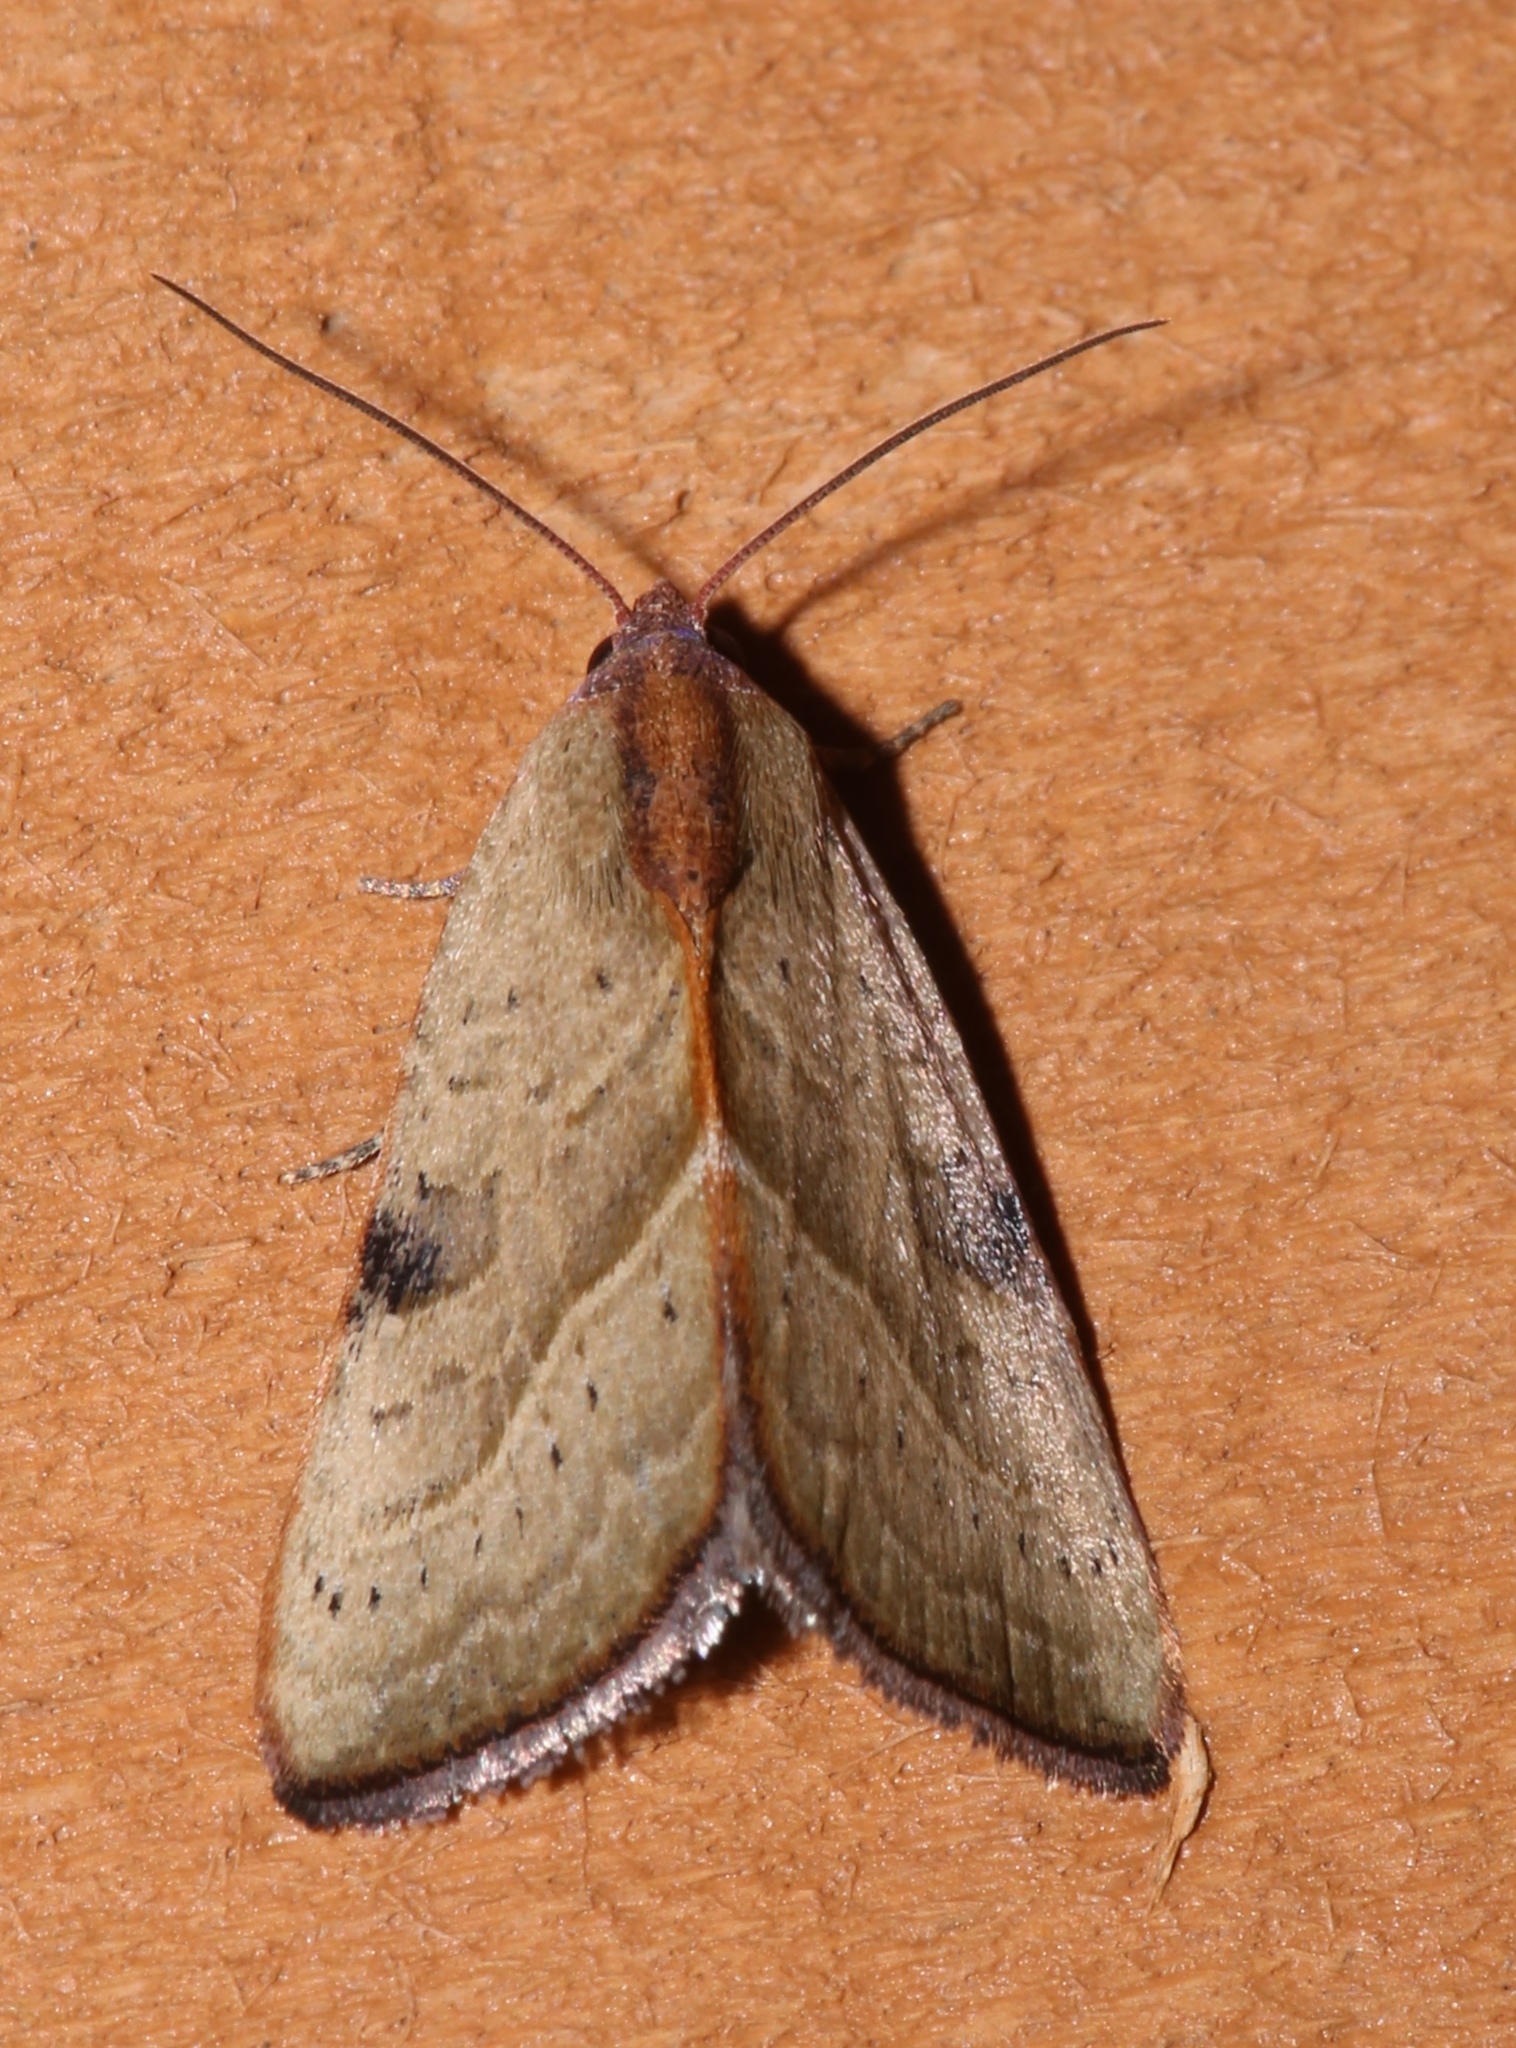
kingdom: Animalia
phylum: Arthropoda
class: Insecta
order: Lepidoptera
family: Noctuidae
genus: Galgula
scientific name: Galgula partita
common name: Wedgeling
